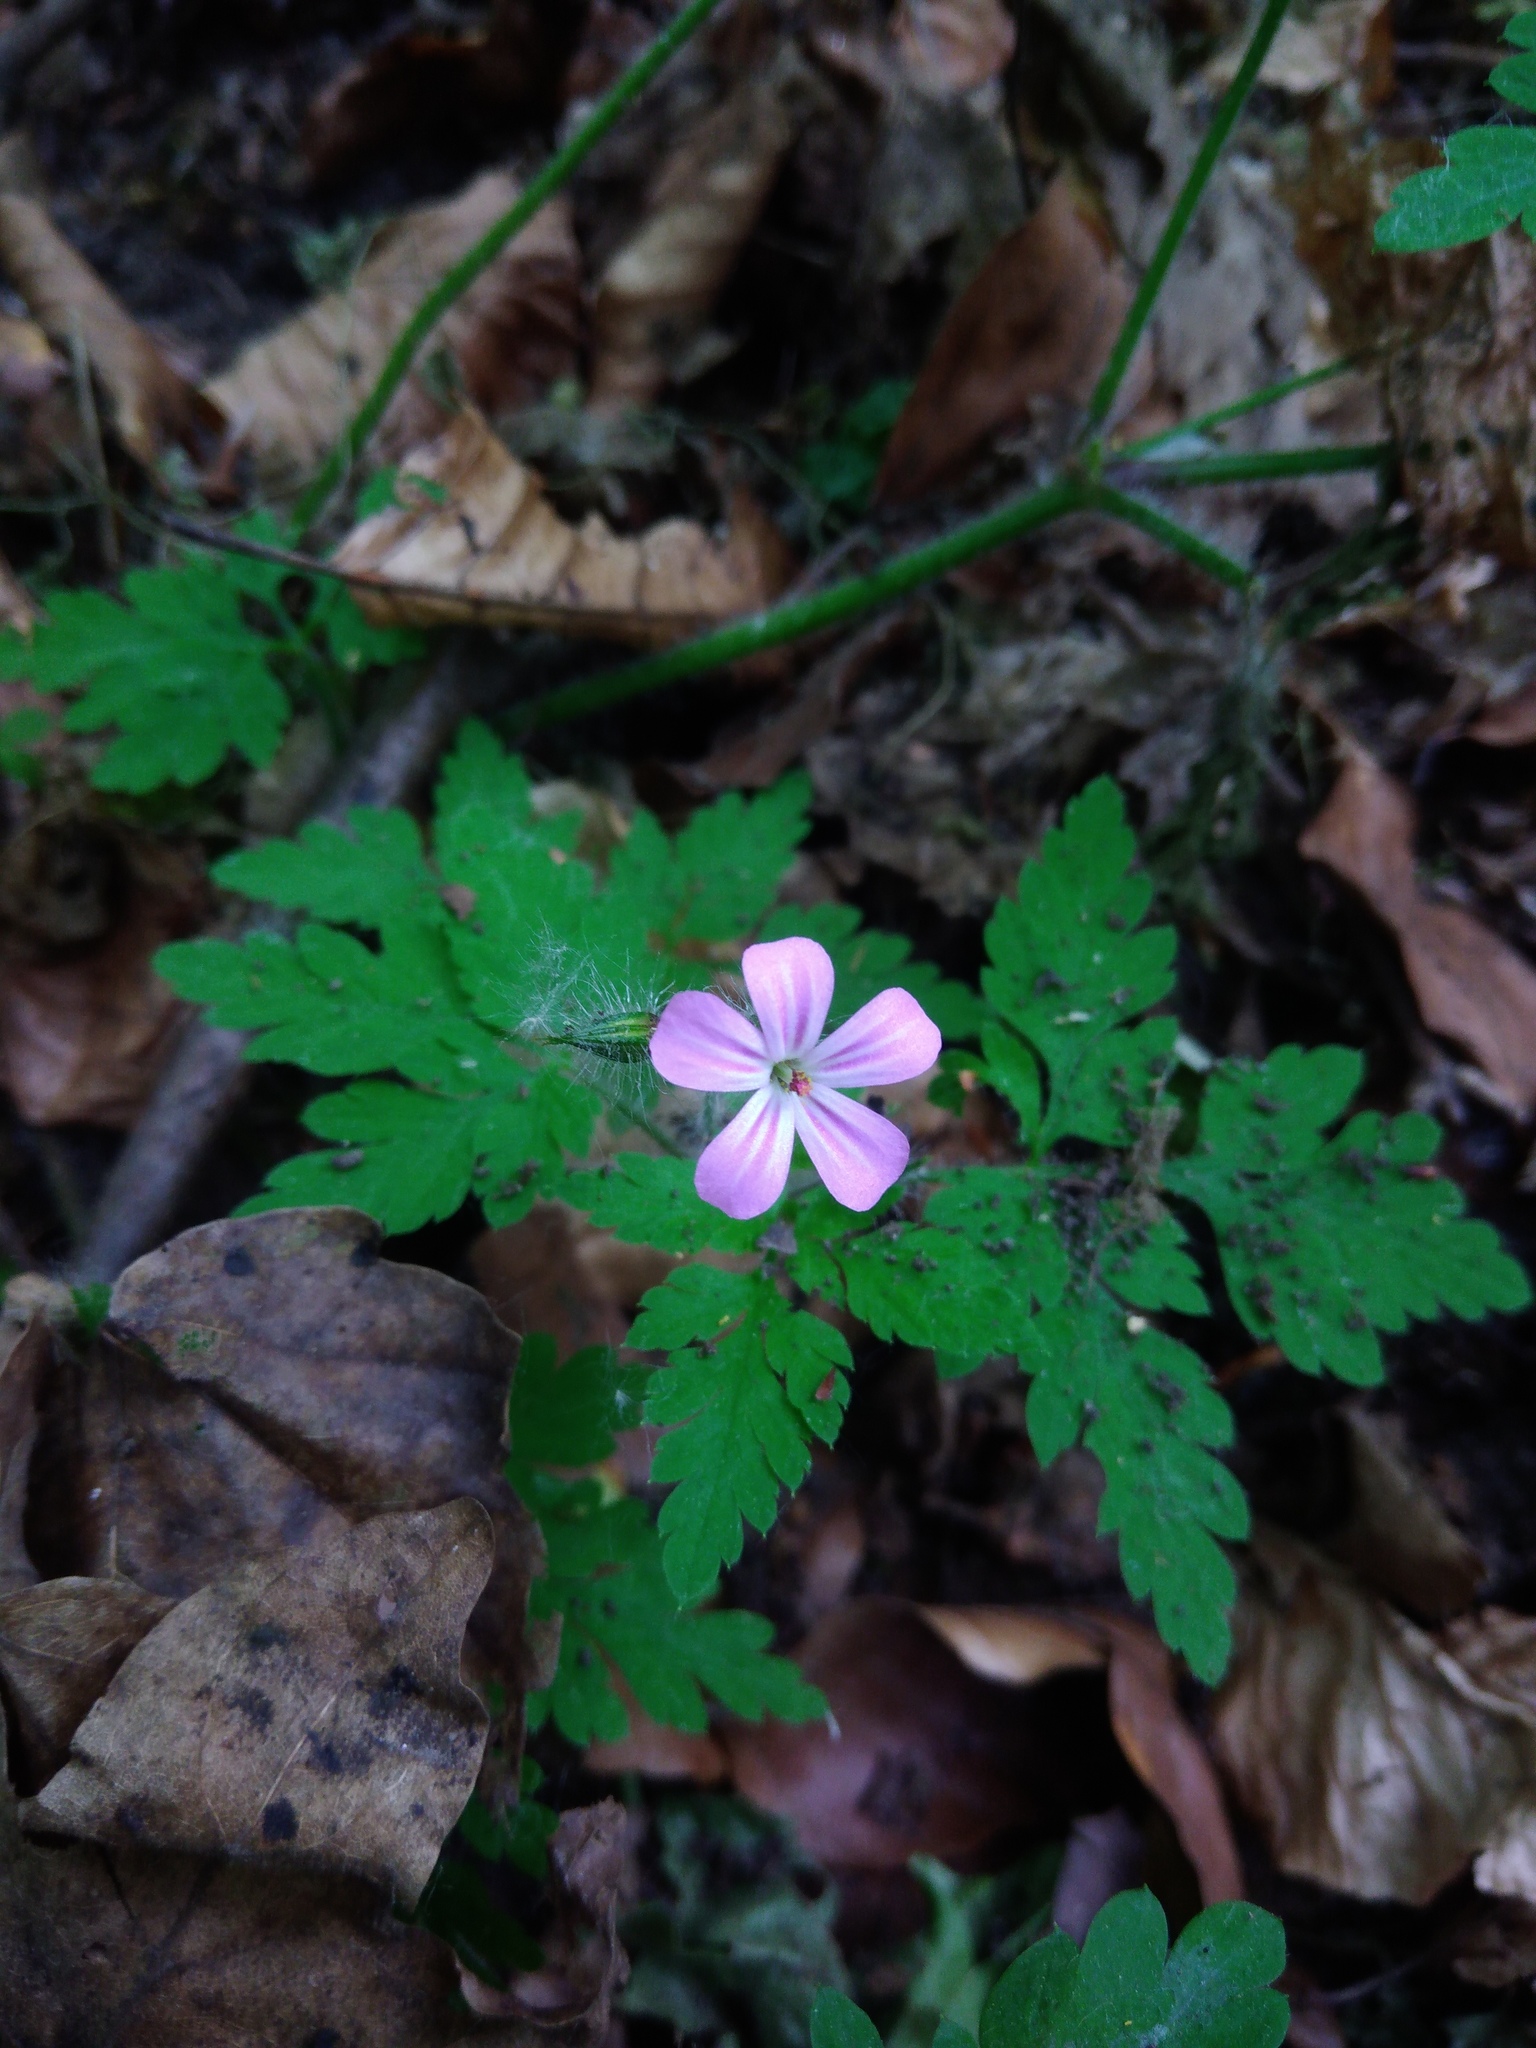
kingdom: Plantae
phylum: Tracheophyta
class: Magnoliopsida
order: Geraniales
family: Geraniaceae
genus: Geranium
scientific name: Geranium robertianum
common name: Herb-robert
